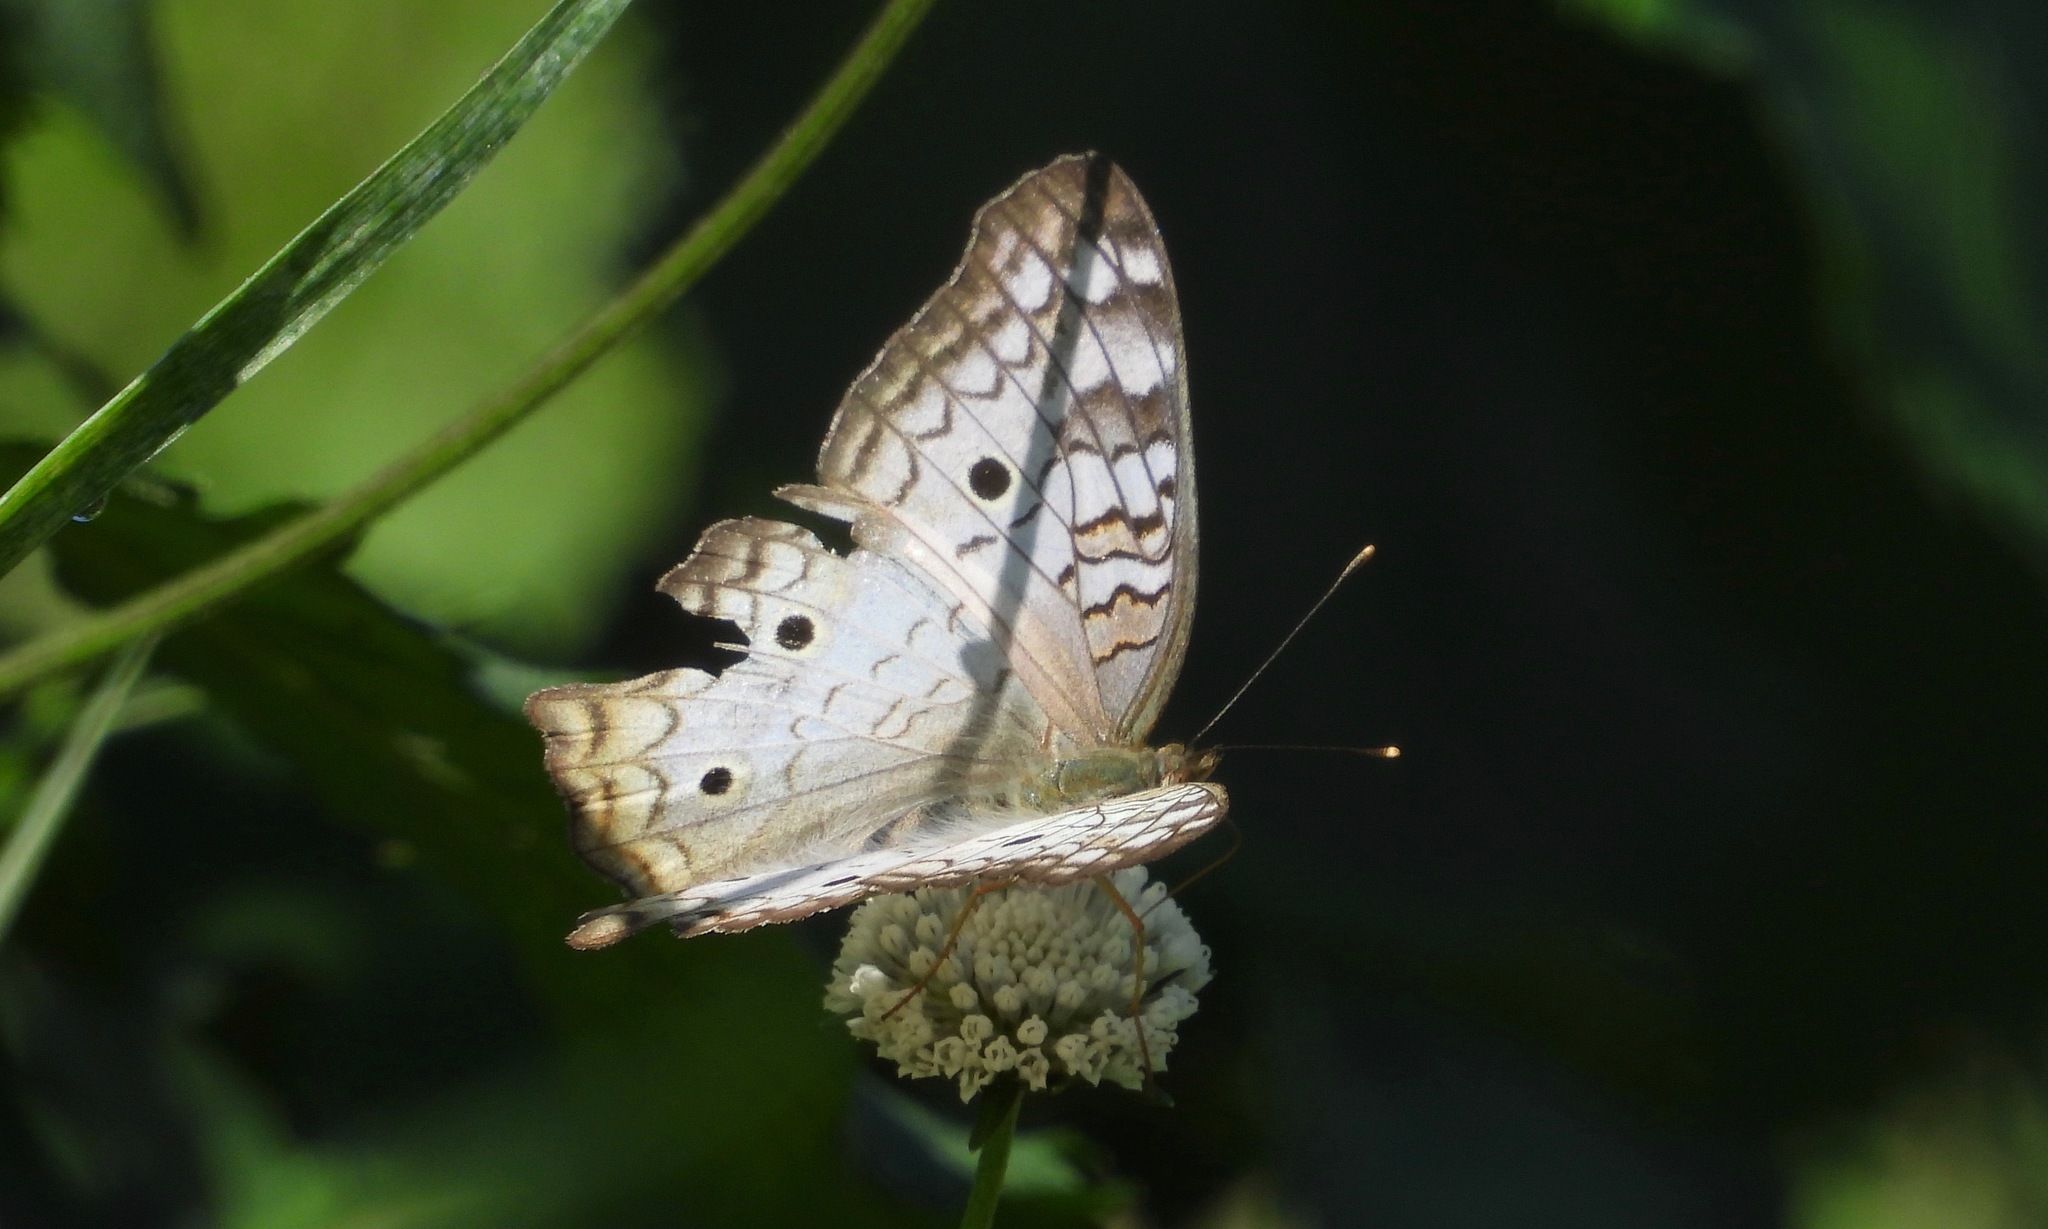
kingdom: Animalia
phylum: Arthropoda
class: Insecta
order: Lepidoptera
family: Nymphalidae
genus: Anartia
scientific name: Anartia jatrophae
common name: White peacock
